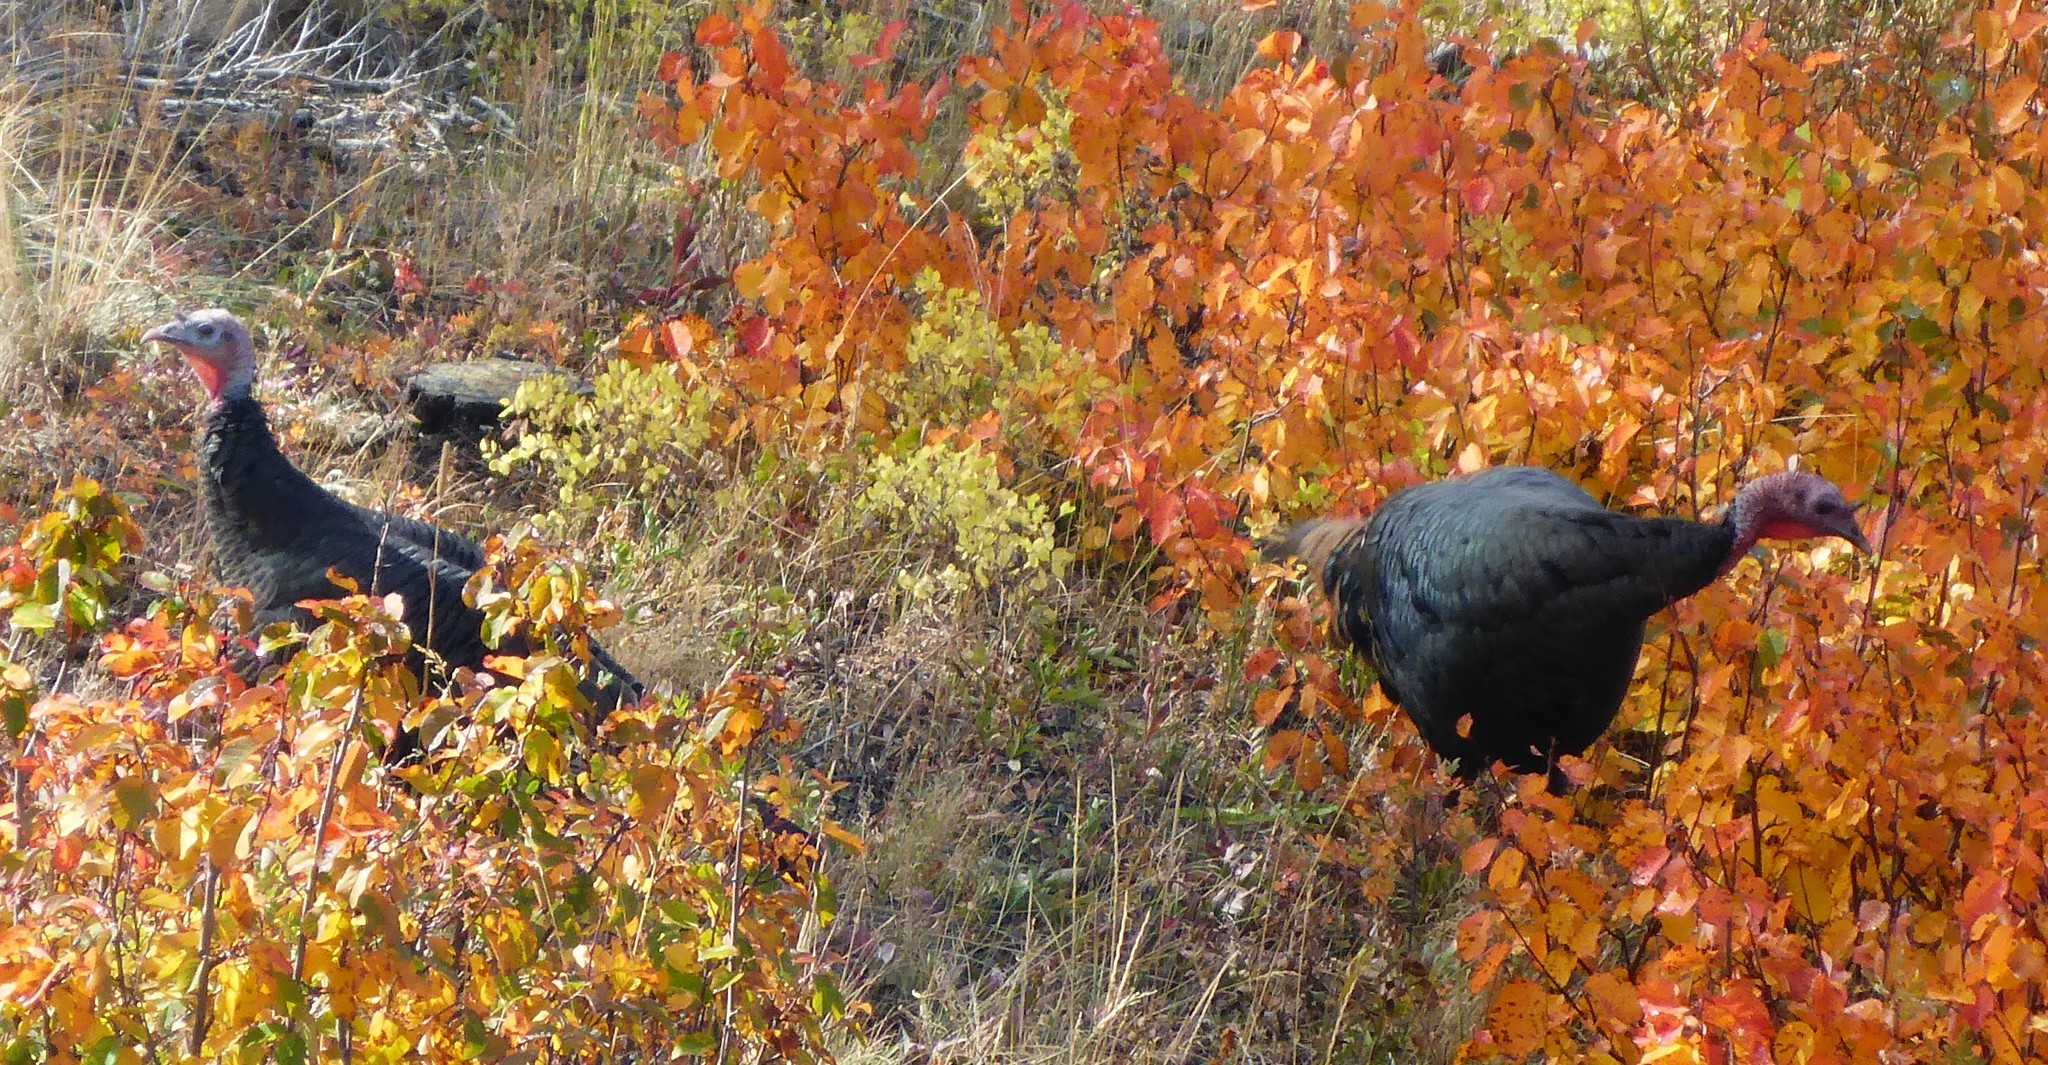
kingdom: Animalia
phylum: Chordata
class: Aves
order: Galliformes
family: Phasianidae
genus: Meleagris
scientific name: Meleagris gallopavo
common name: Wild turkey
